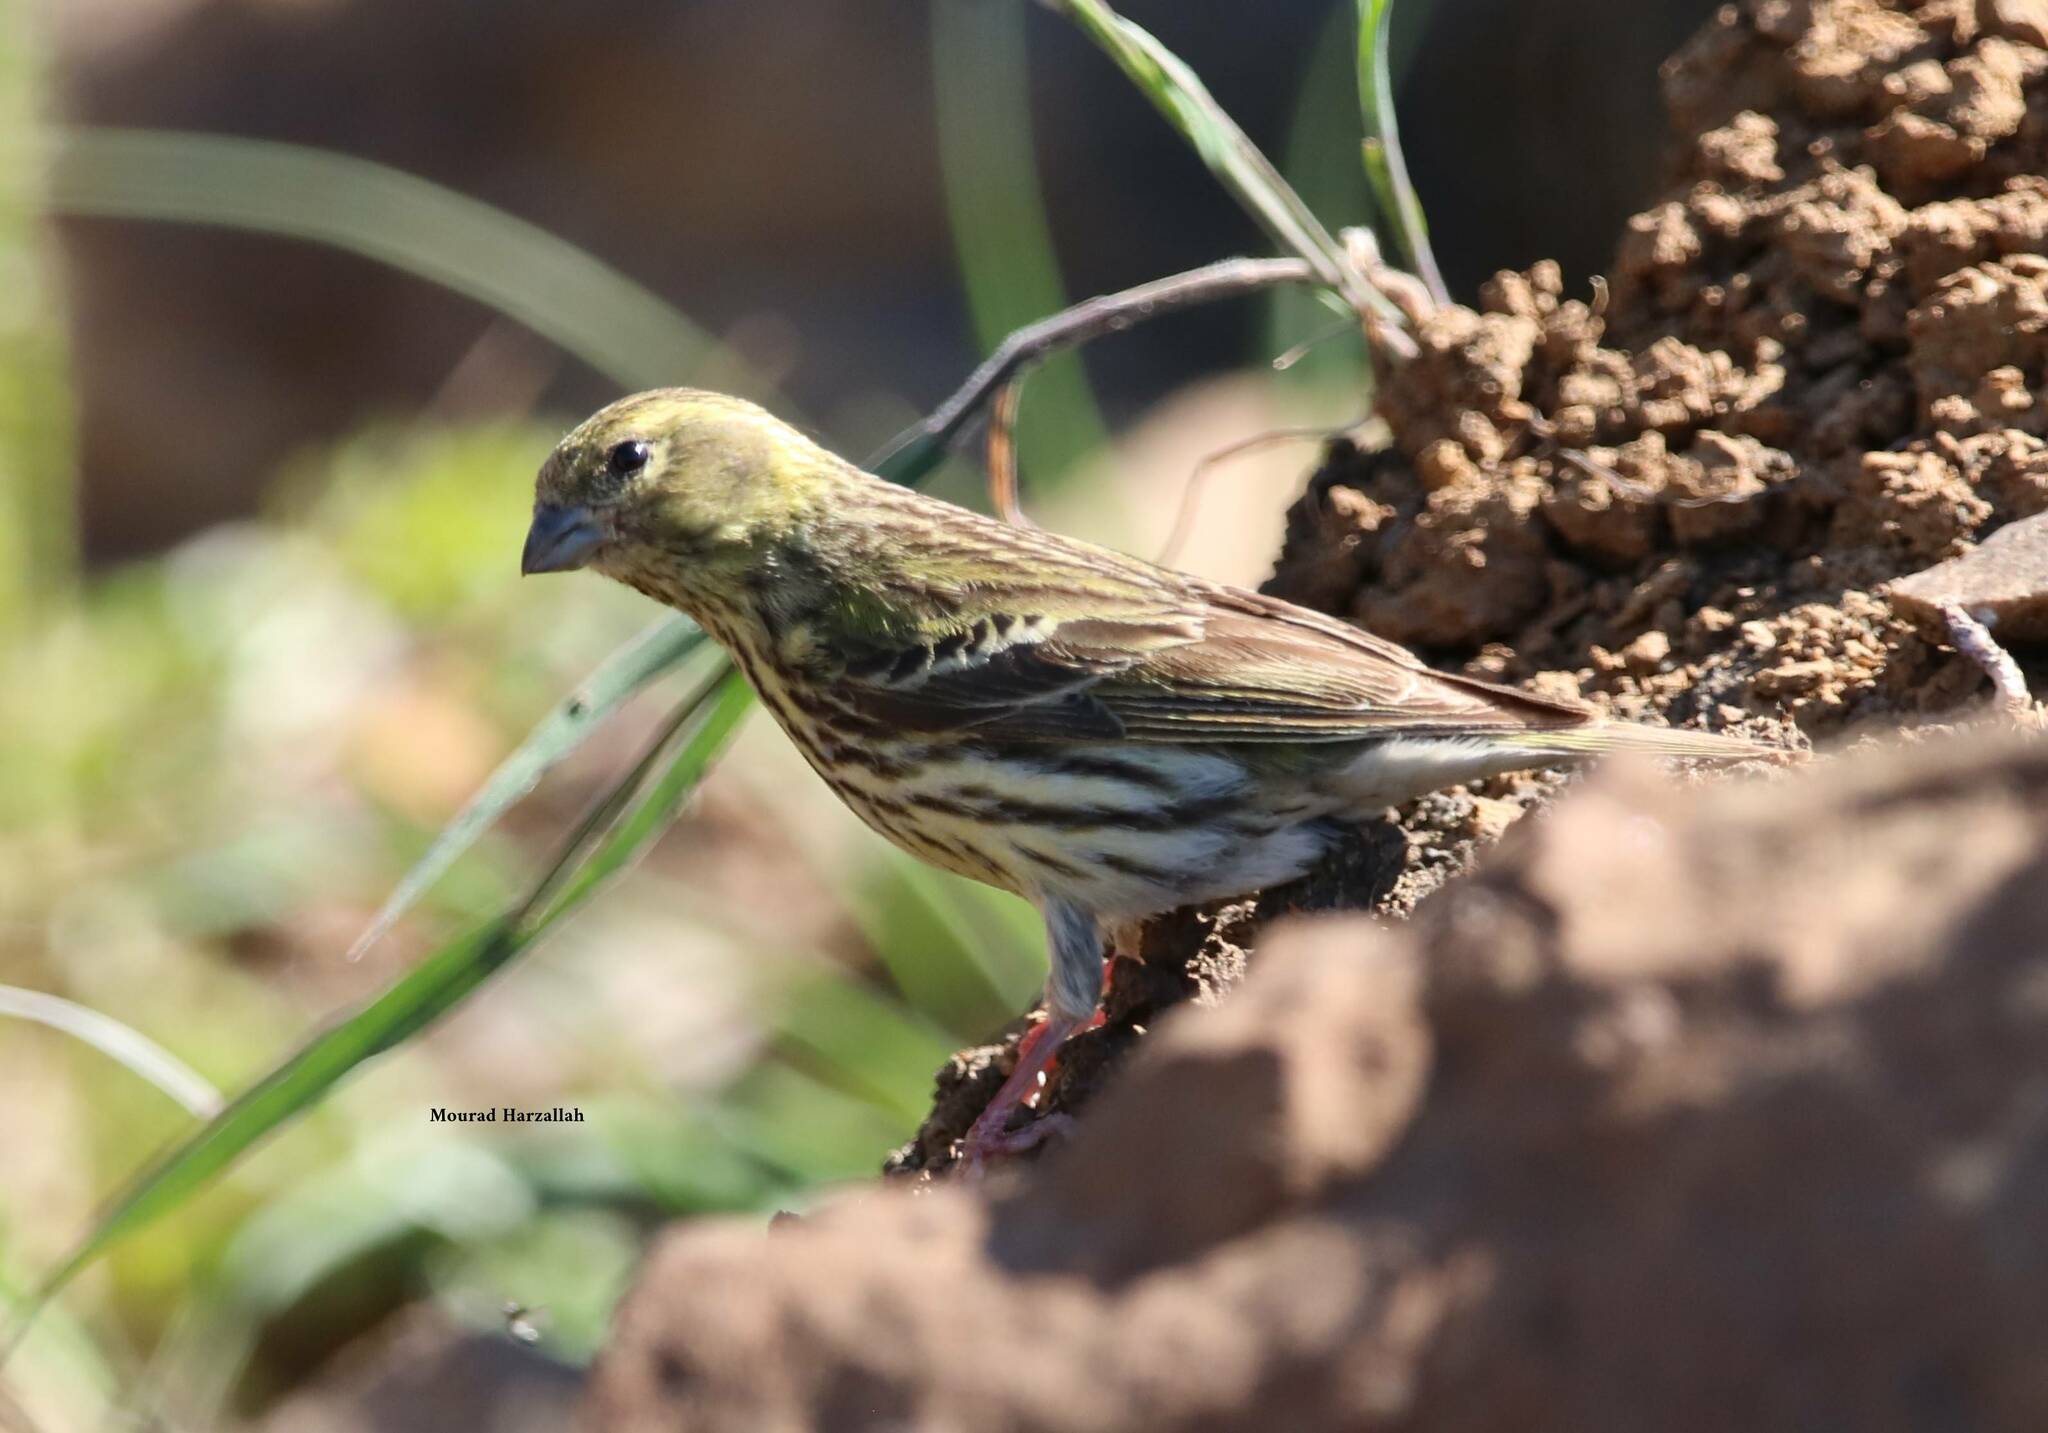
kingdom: Animalia
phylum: Chordata
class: Aves
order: Passeriformes
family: Fringillidae
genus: Serinus
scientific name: Serinus serinus
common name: European serin
